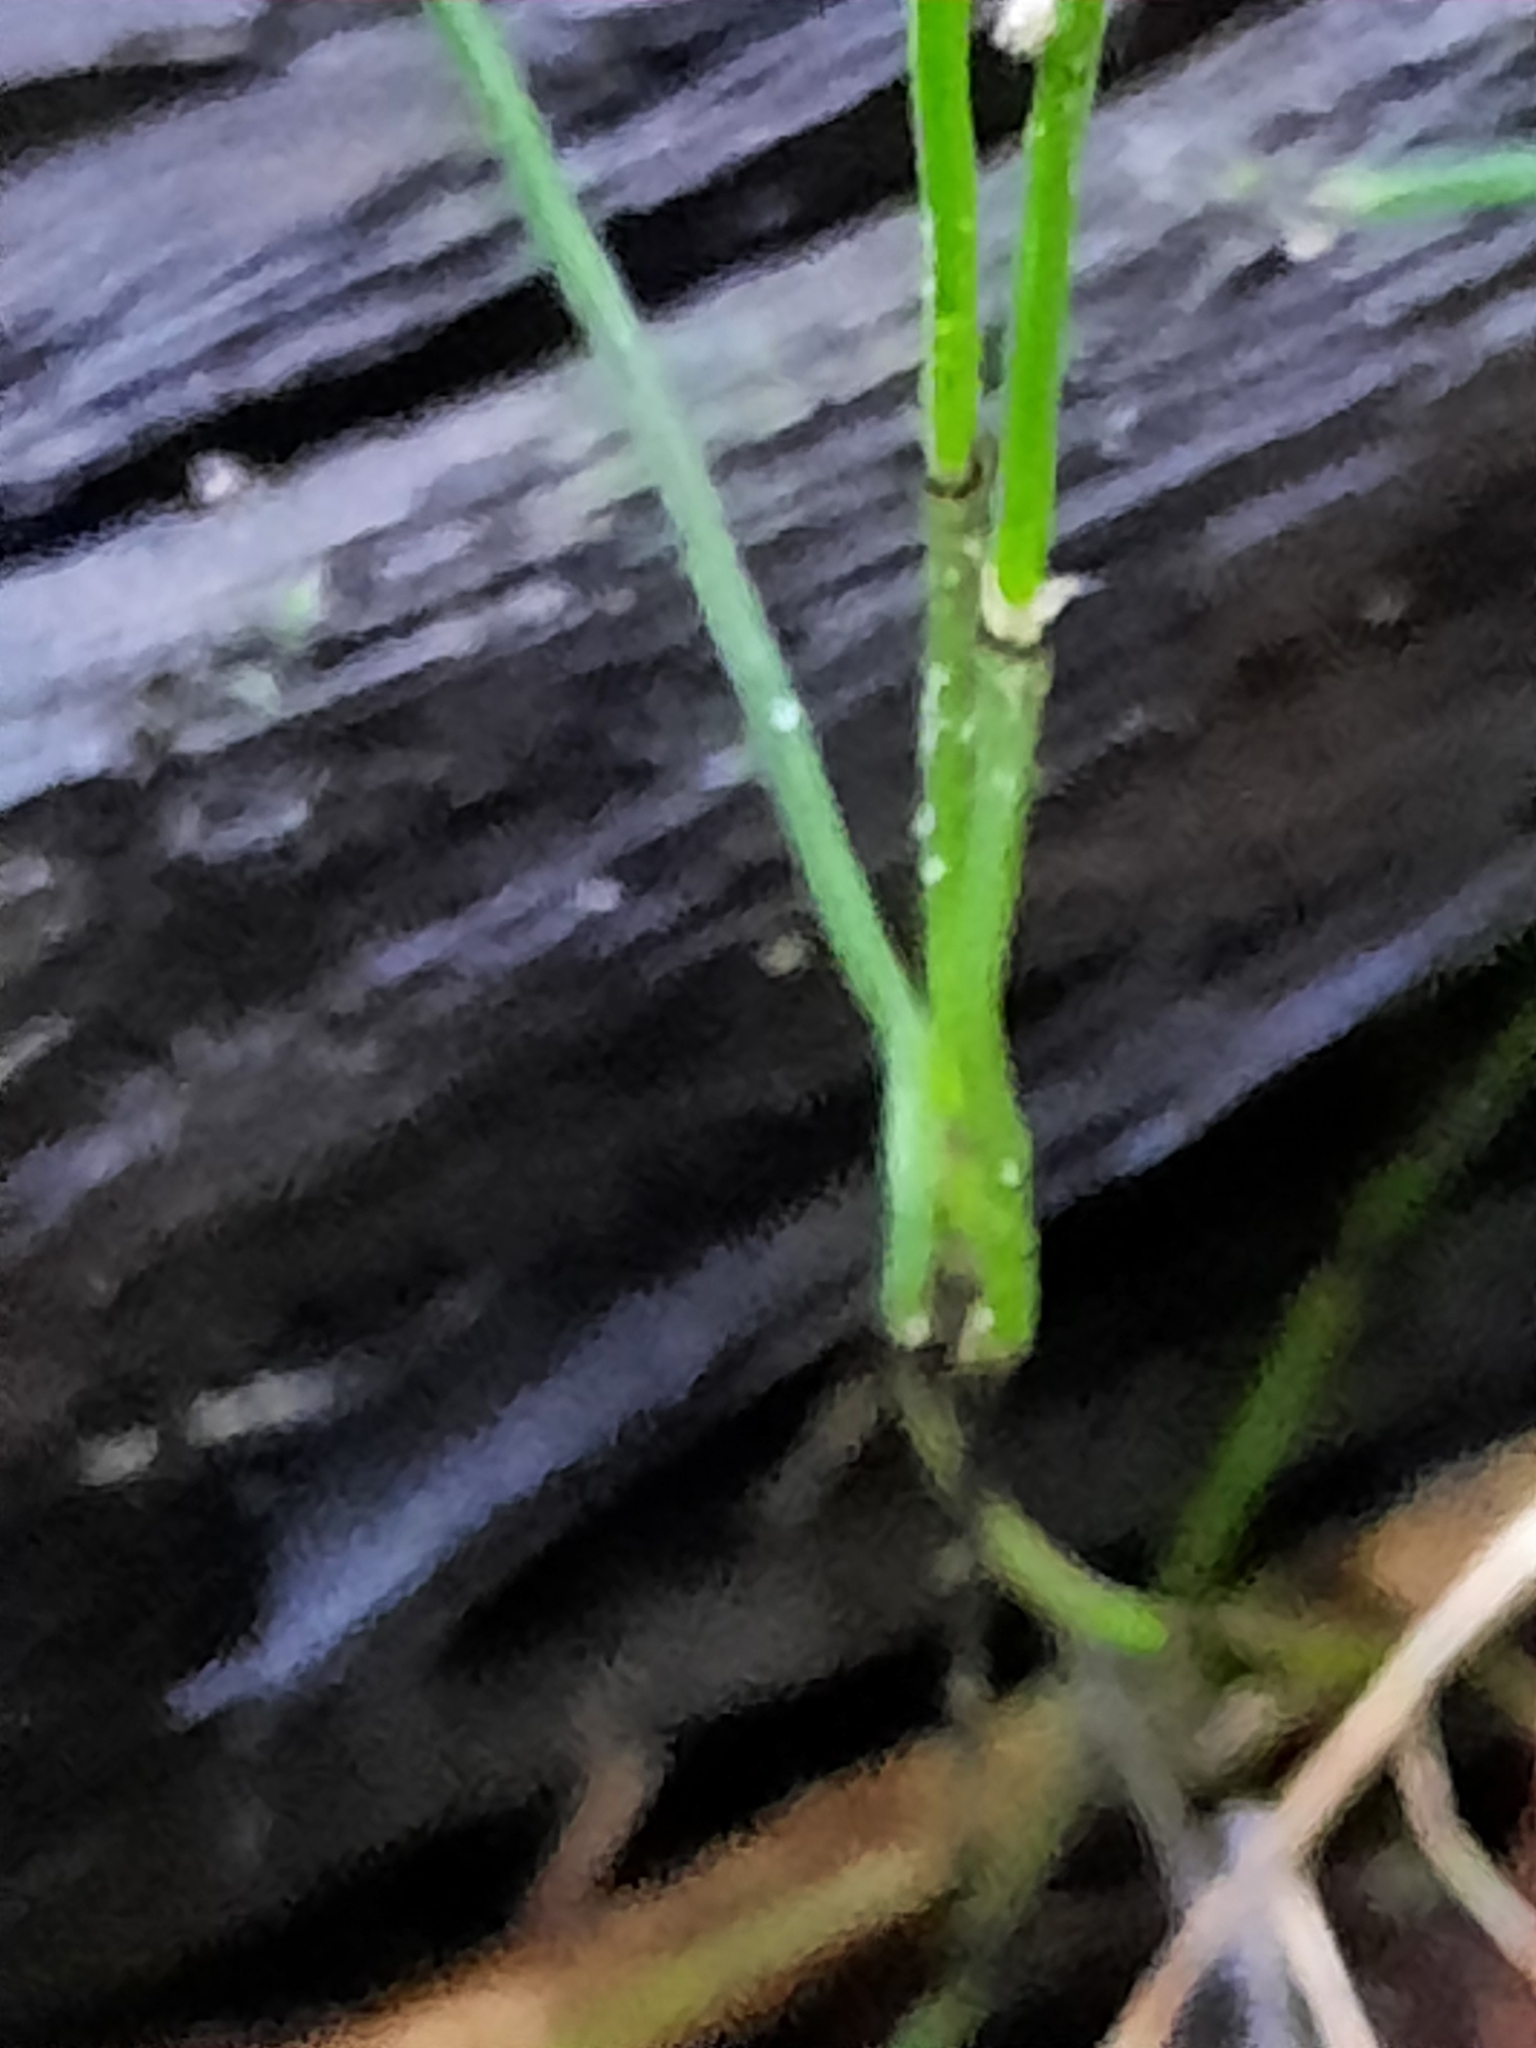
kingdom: Plantae
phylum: Tracheophyta
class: Polypodiopsida
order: Equisetales
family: Equisetaceae
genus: Equisetum
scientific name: Equisetum scirpoides
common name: Delicate horsetail
